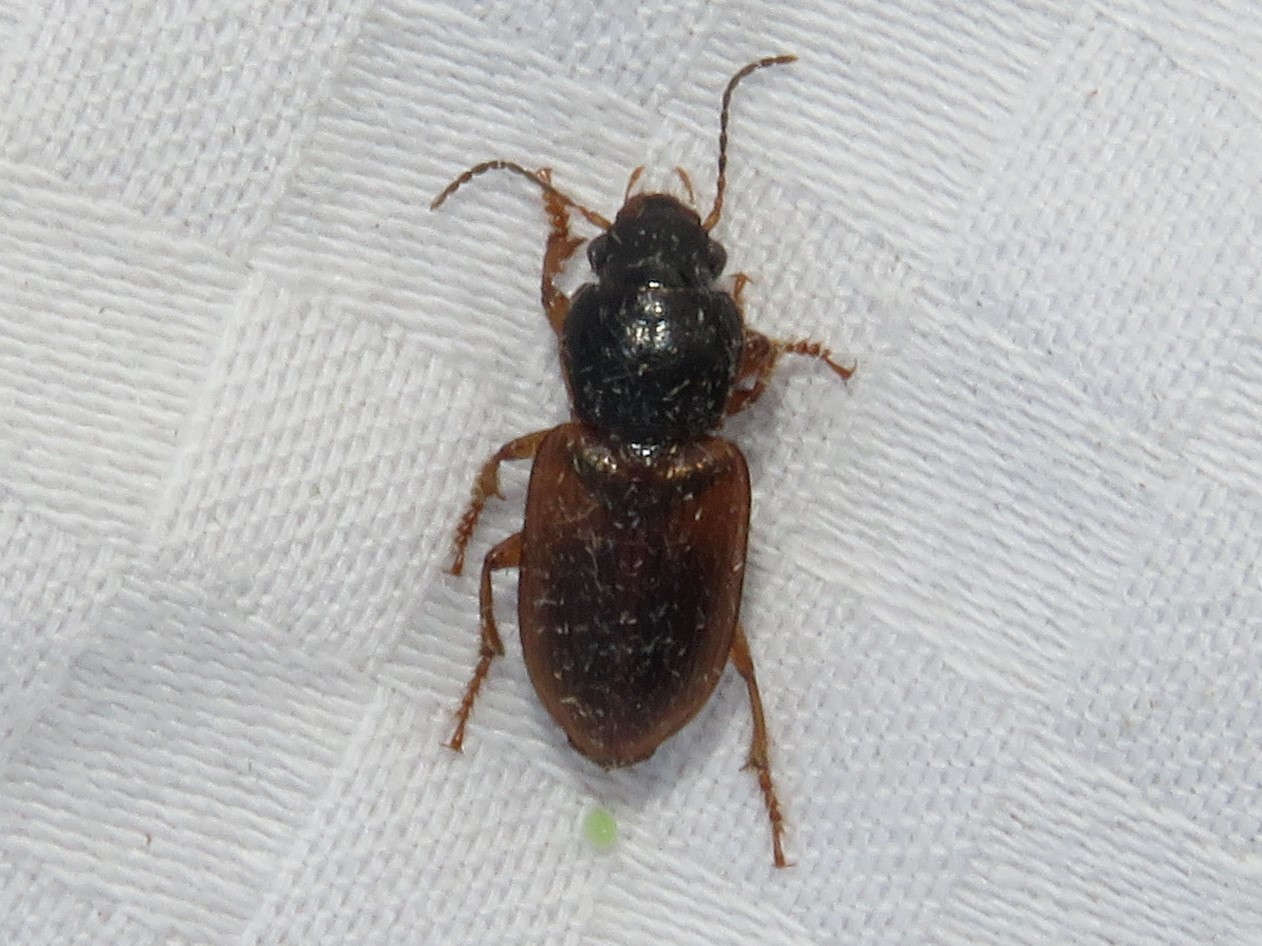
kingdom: Animalia
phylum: Arthropoda
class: Insecta
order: Coleoptera
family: Carabidae
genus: Anisodactylus
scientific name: Anisodactylus sanctaecrucis
